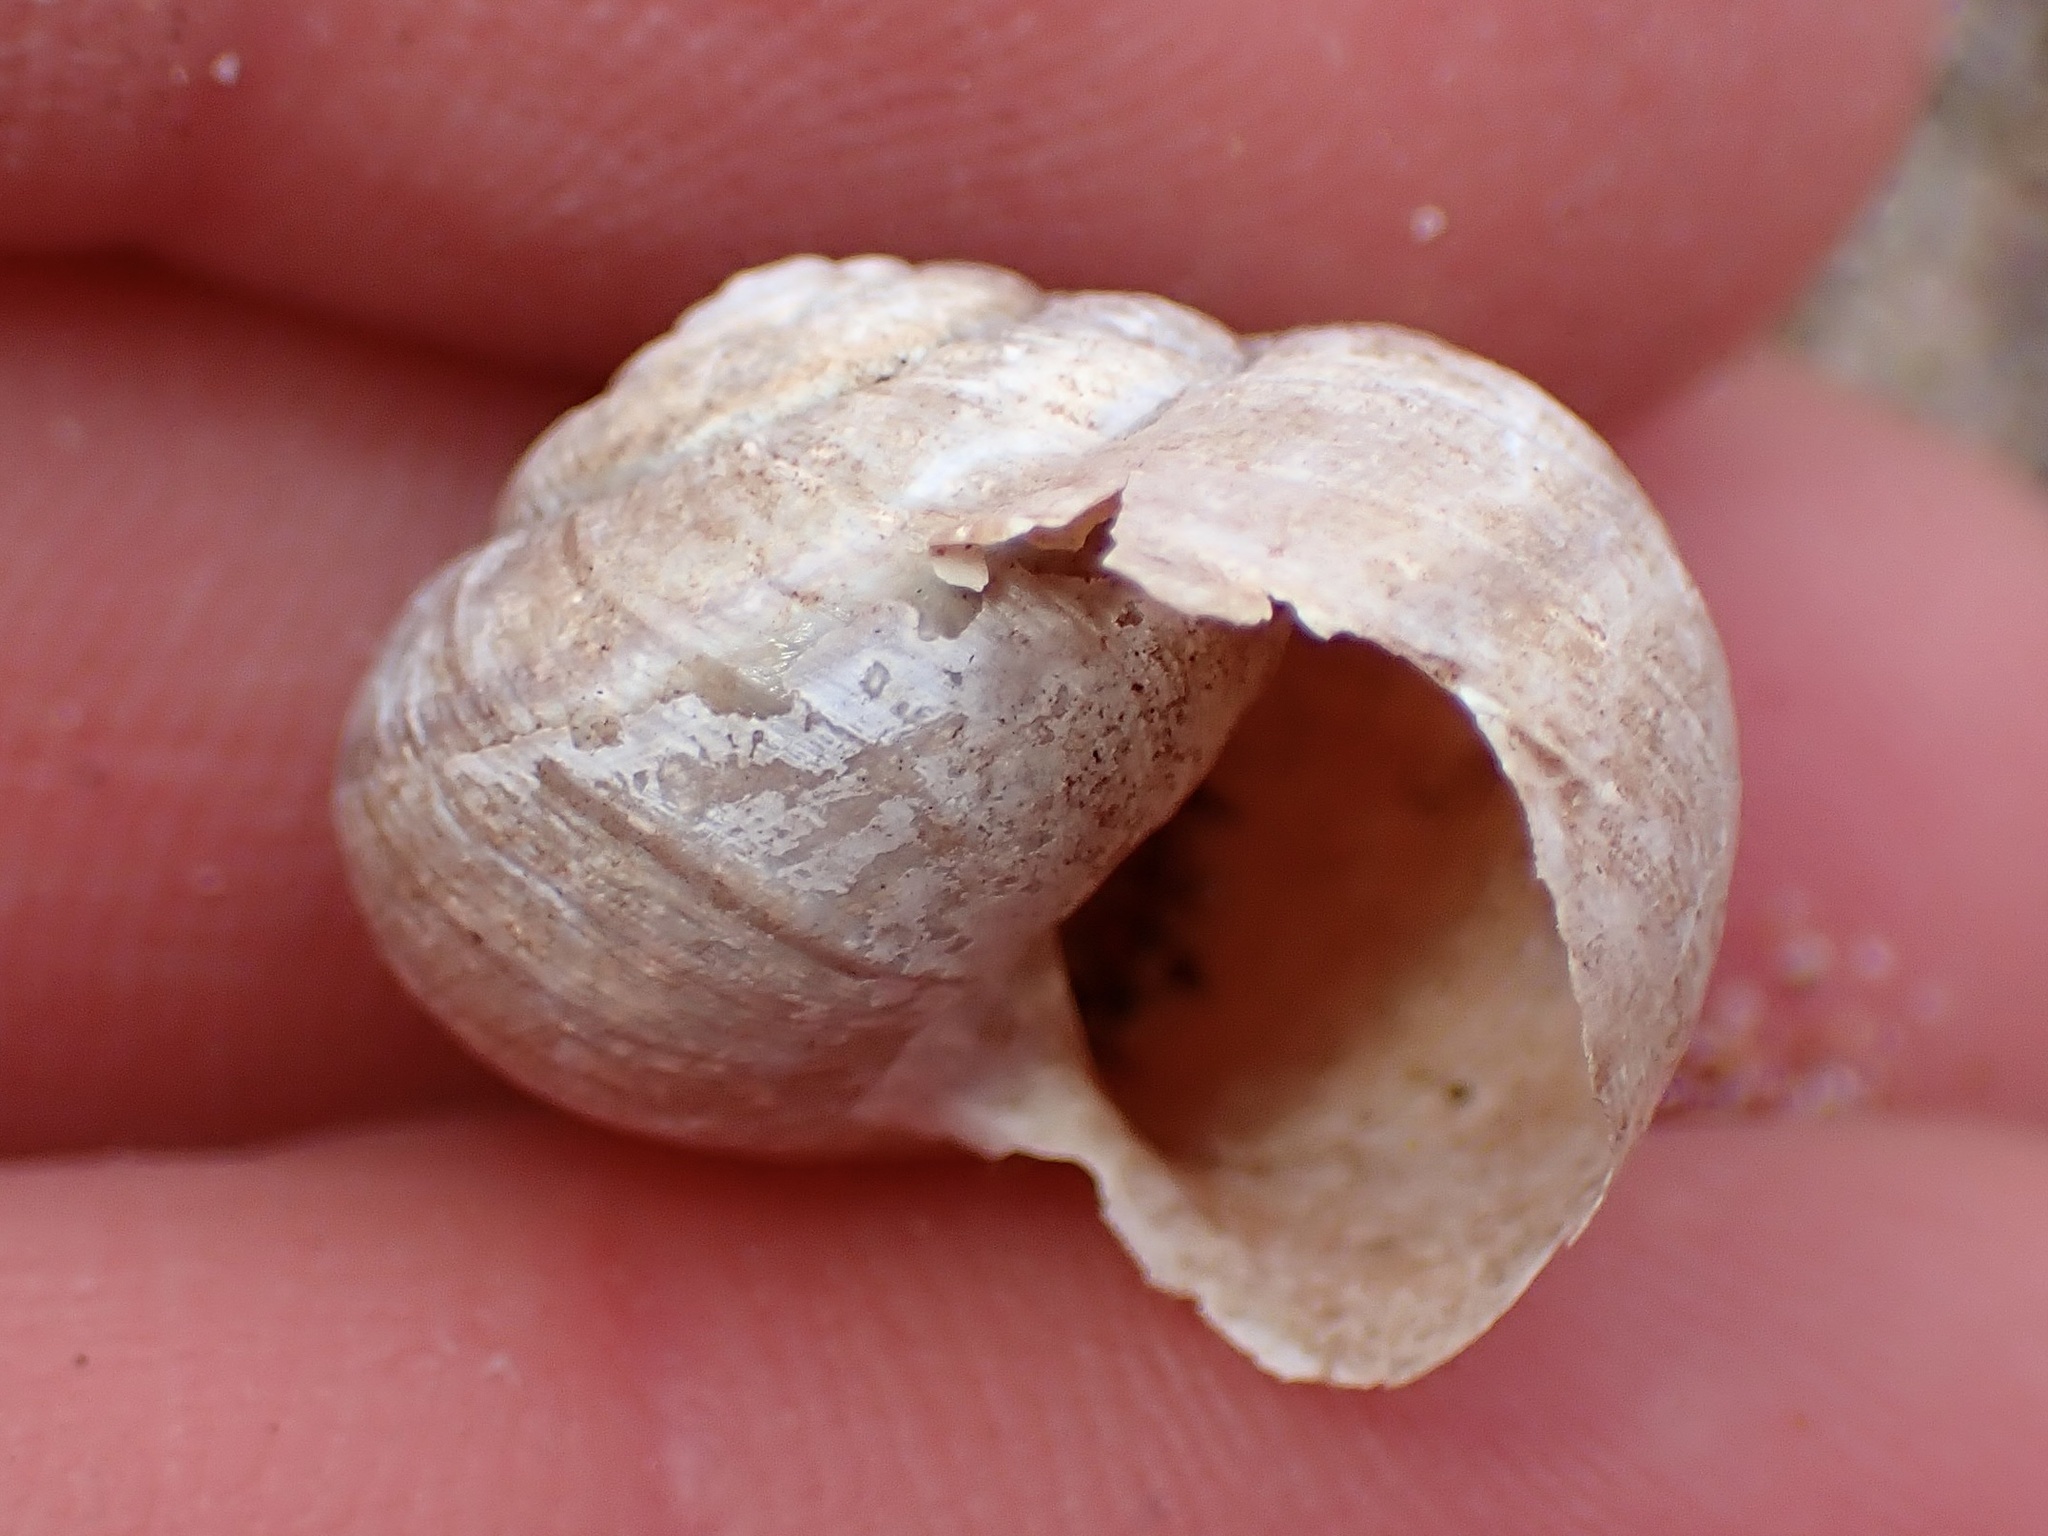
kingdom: Animalia
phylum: Mollusca
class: Gastropoda
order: Stylommatophora
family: Xanthonychidae
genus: Helminthoglypta
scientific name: Helminthoglypta walkeriana
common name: Banded dune snail
